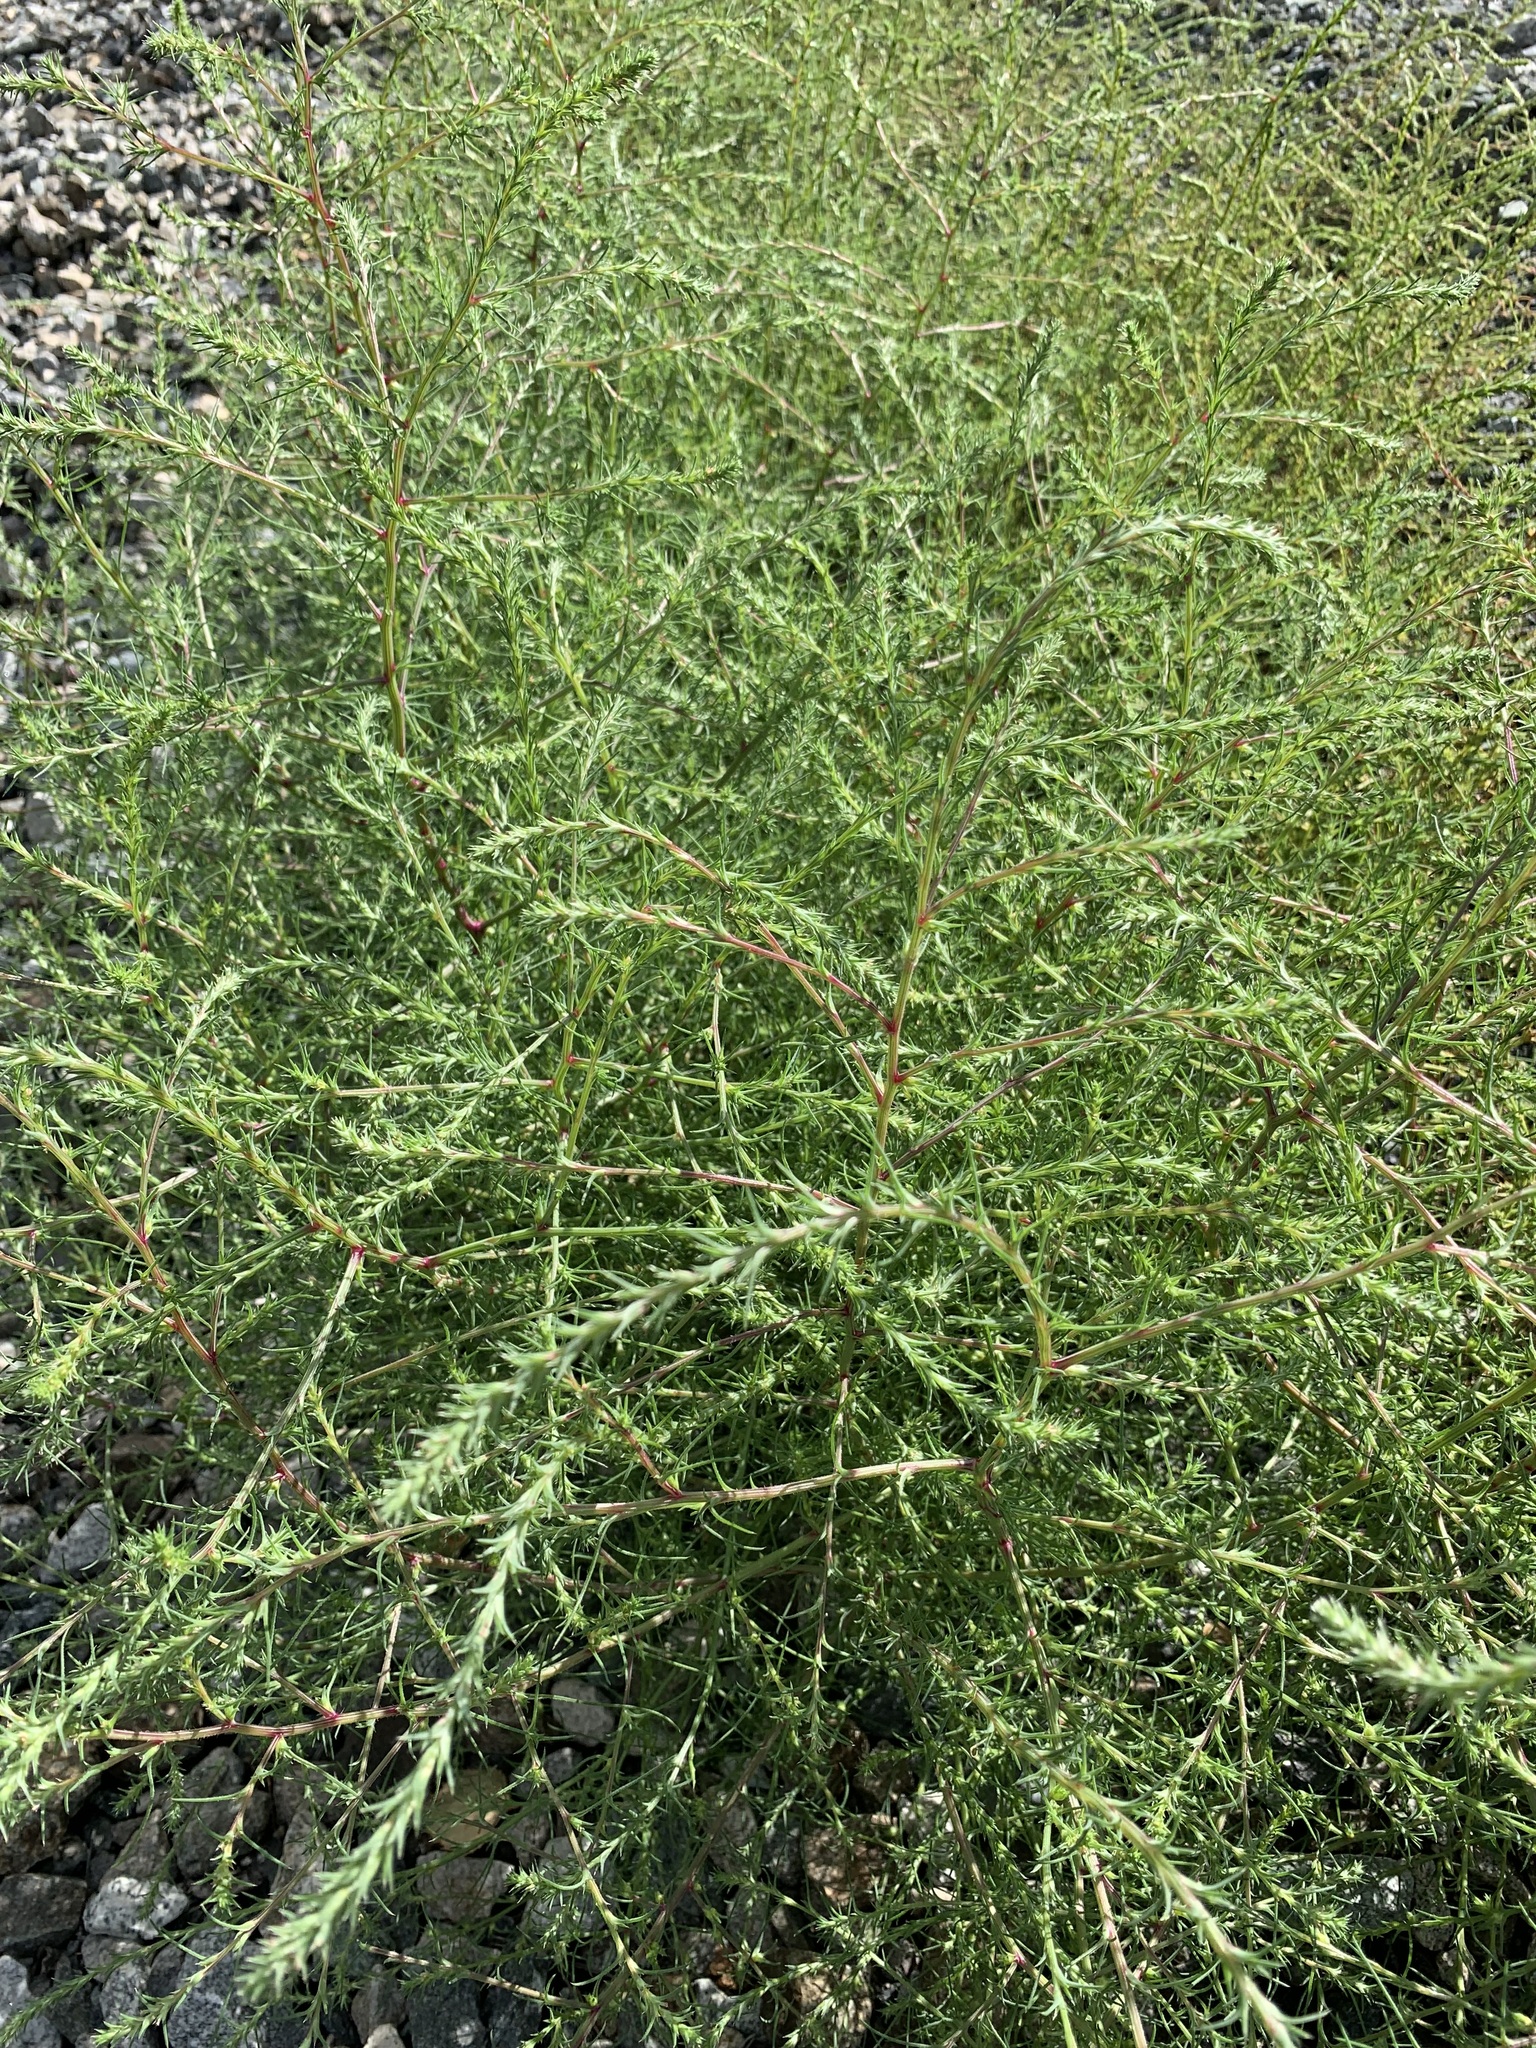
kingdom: Plantae
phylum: Tracheophyta
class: Magnoliopsida
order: Caryophyllales
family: Amaranthaceae
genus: Bassia
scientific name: Bassia scoparia
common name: Belvedere
